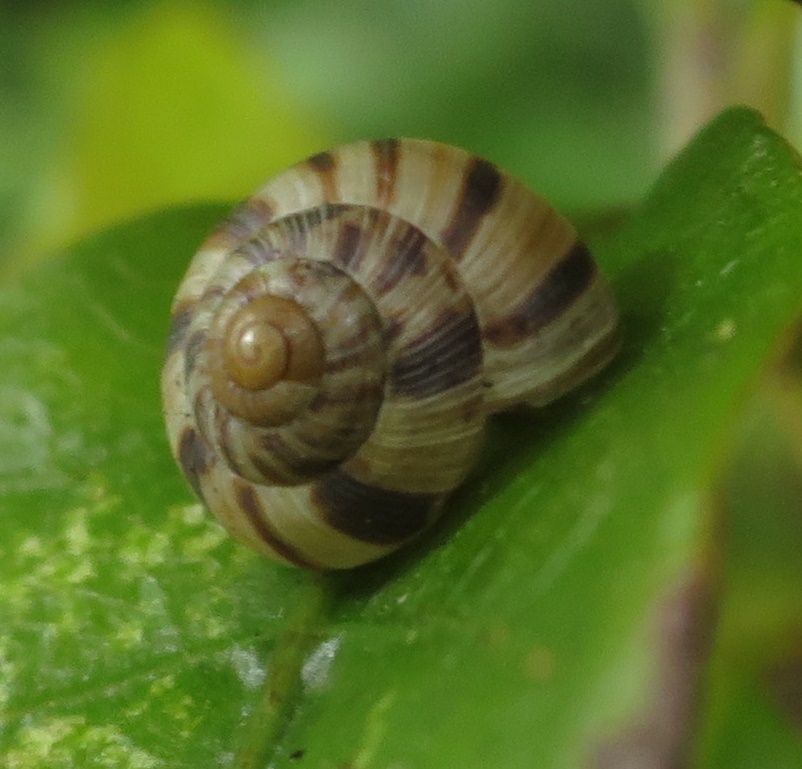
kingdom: Animalia
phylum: Mollusca
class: Gastropoda
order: Stylommatophora
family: Charopidae
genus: Serpho
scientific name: Serpho
